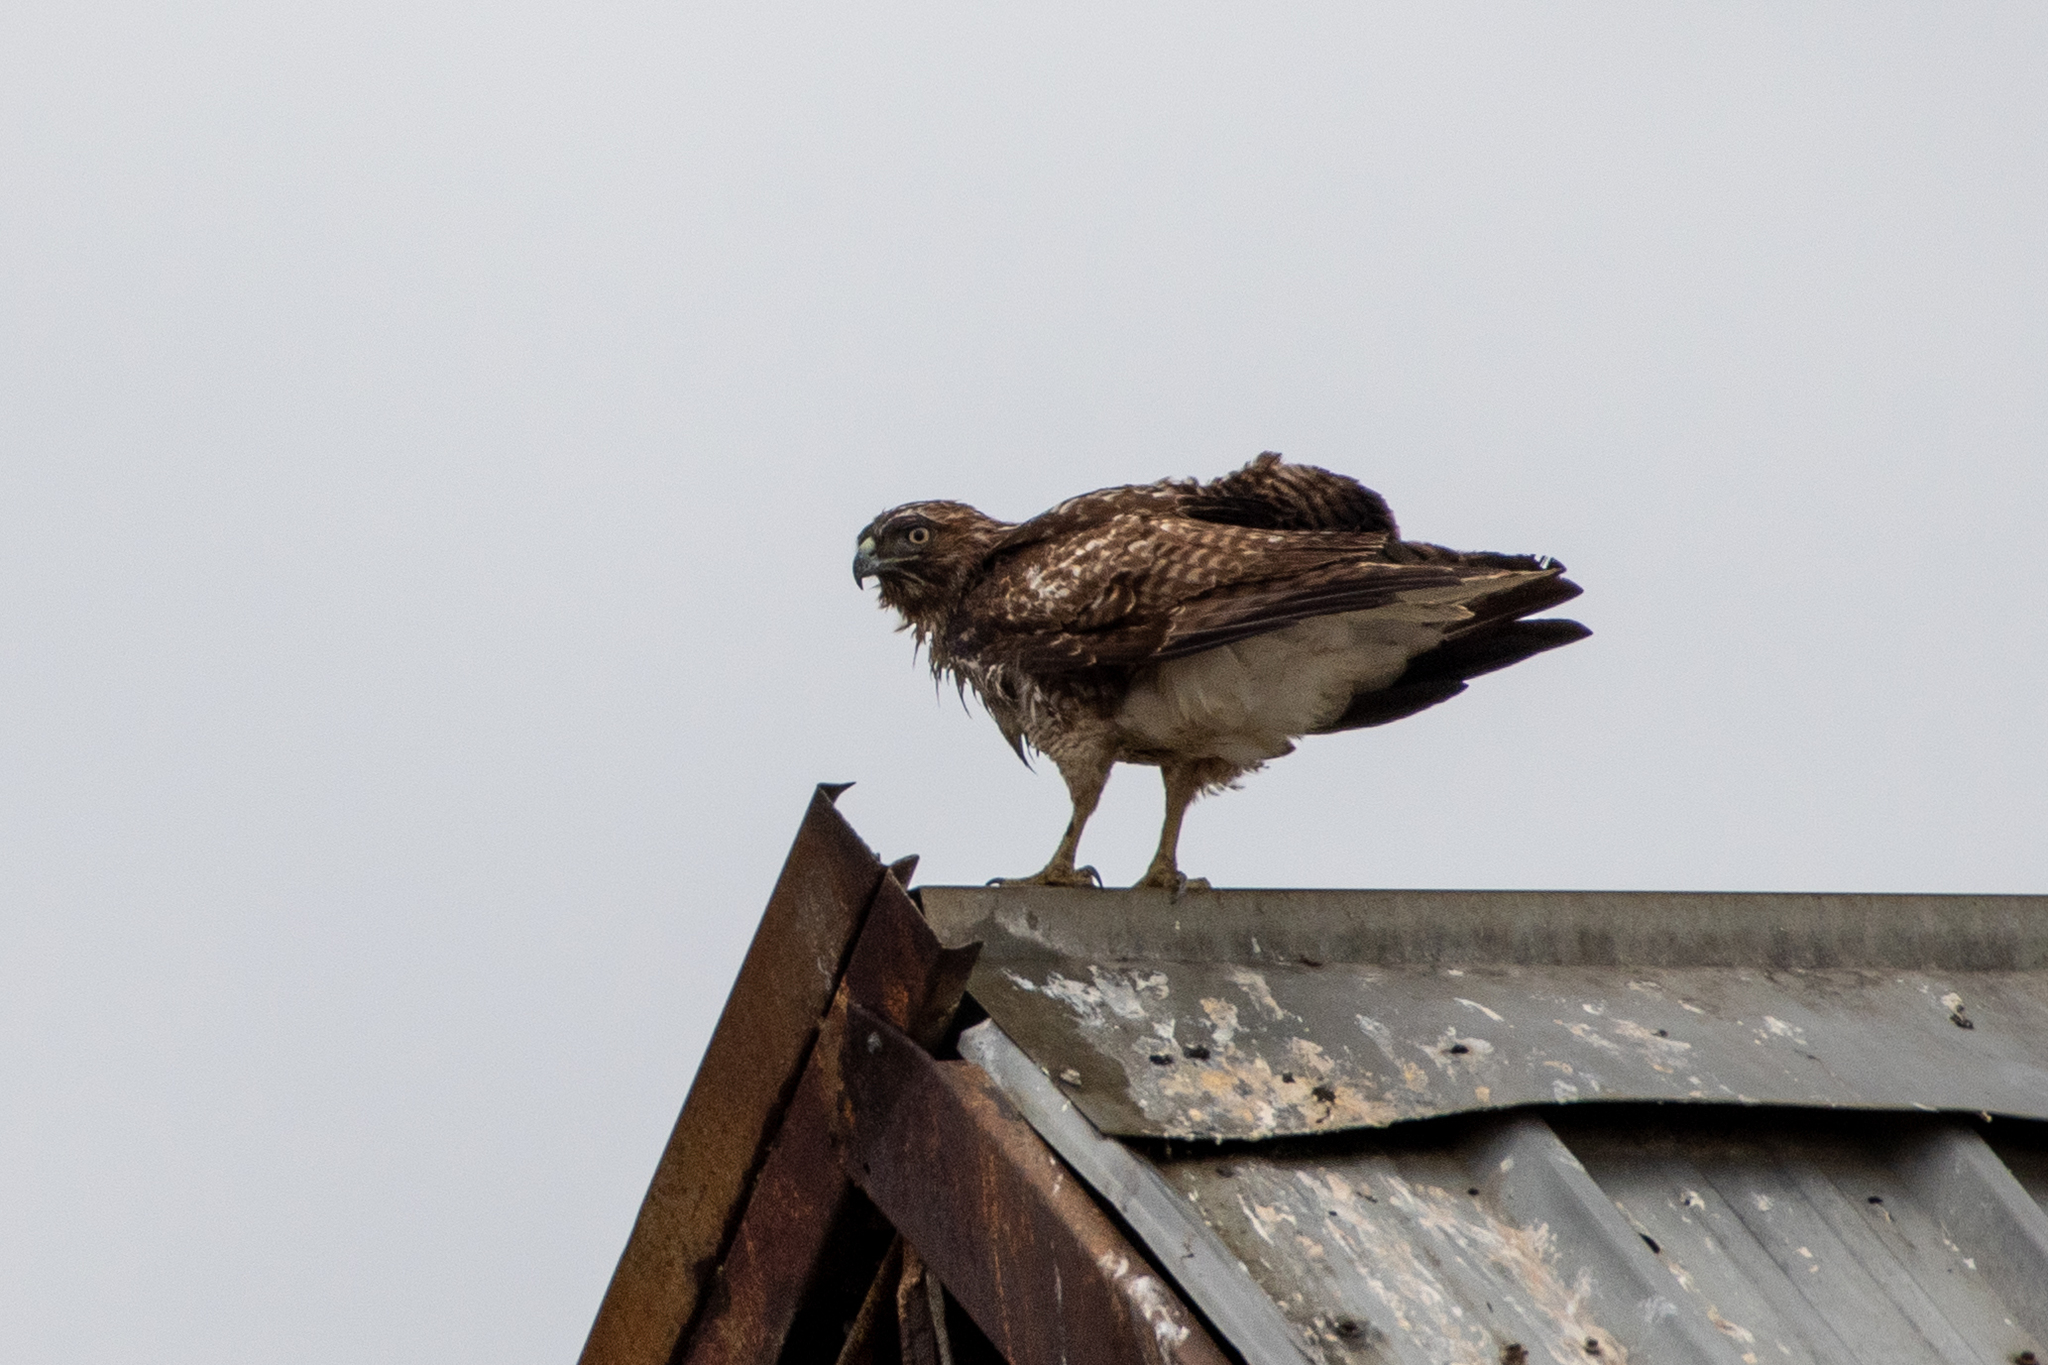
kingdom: Animalia
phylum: Chordata
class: Aves
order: Accipitriformes
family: Accipitridae
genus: Buteo
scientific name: Buteo jamaicensis
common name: Red-tailed hawk
